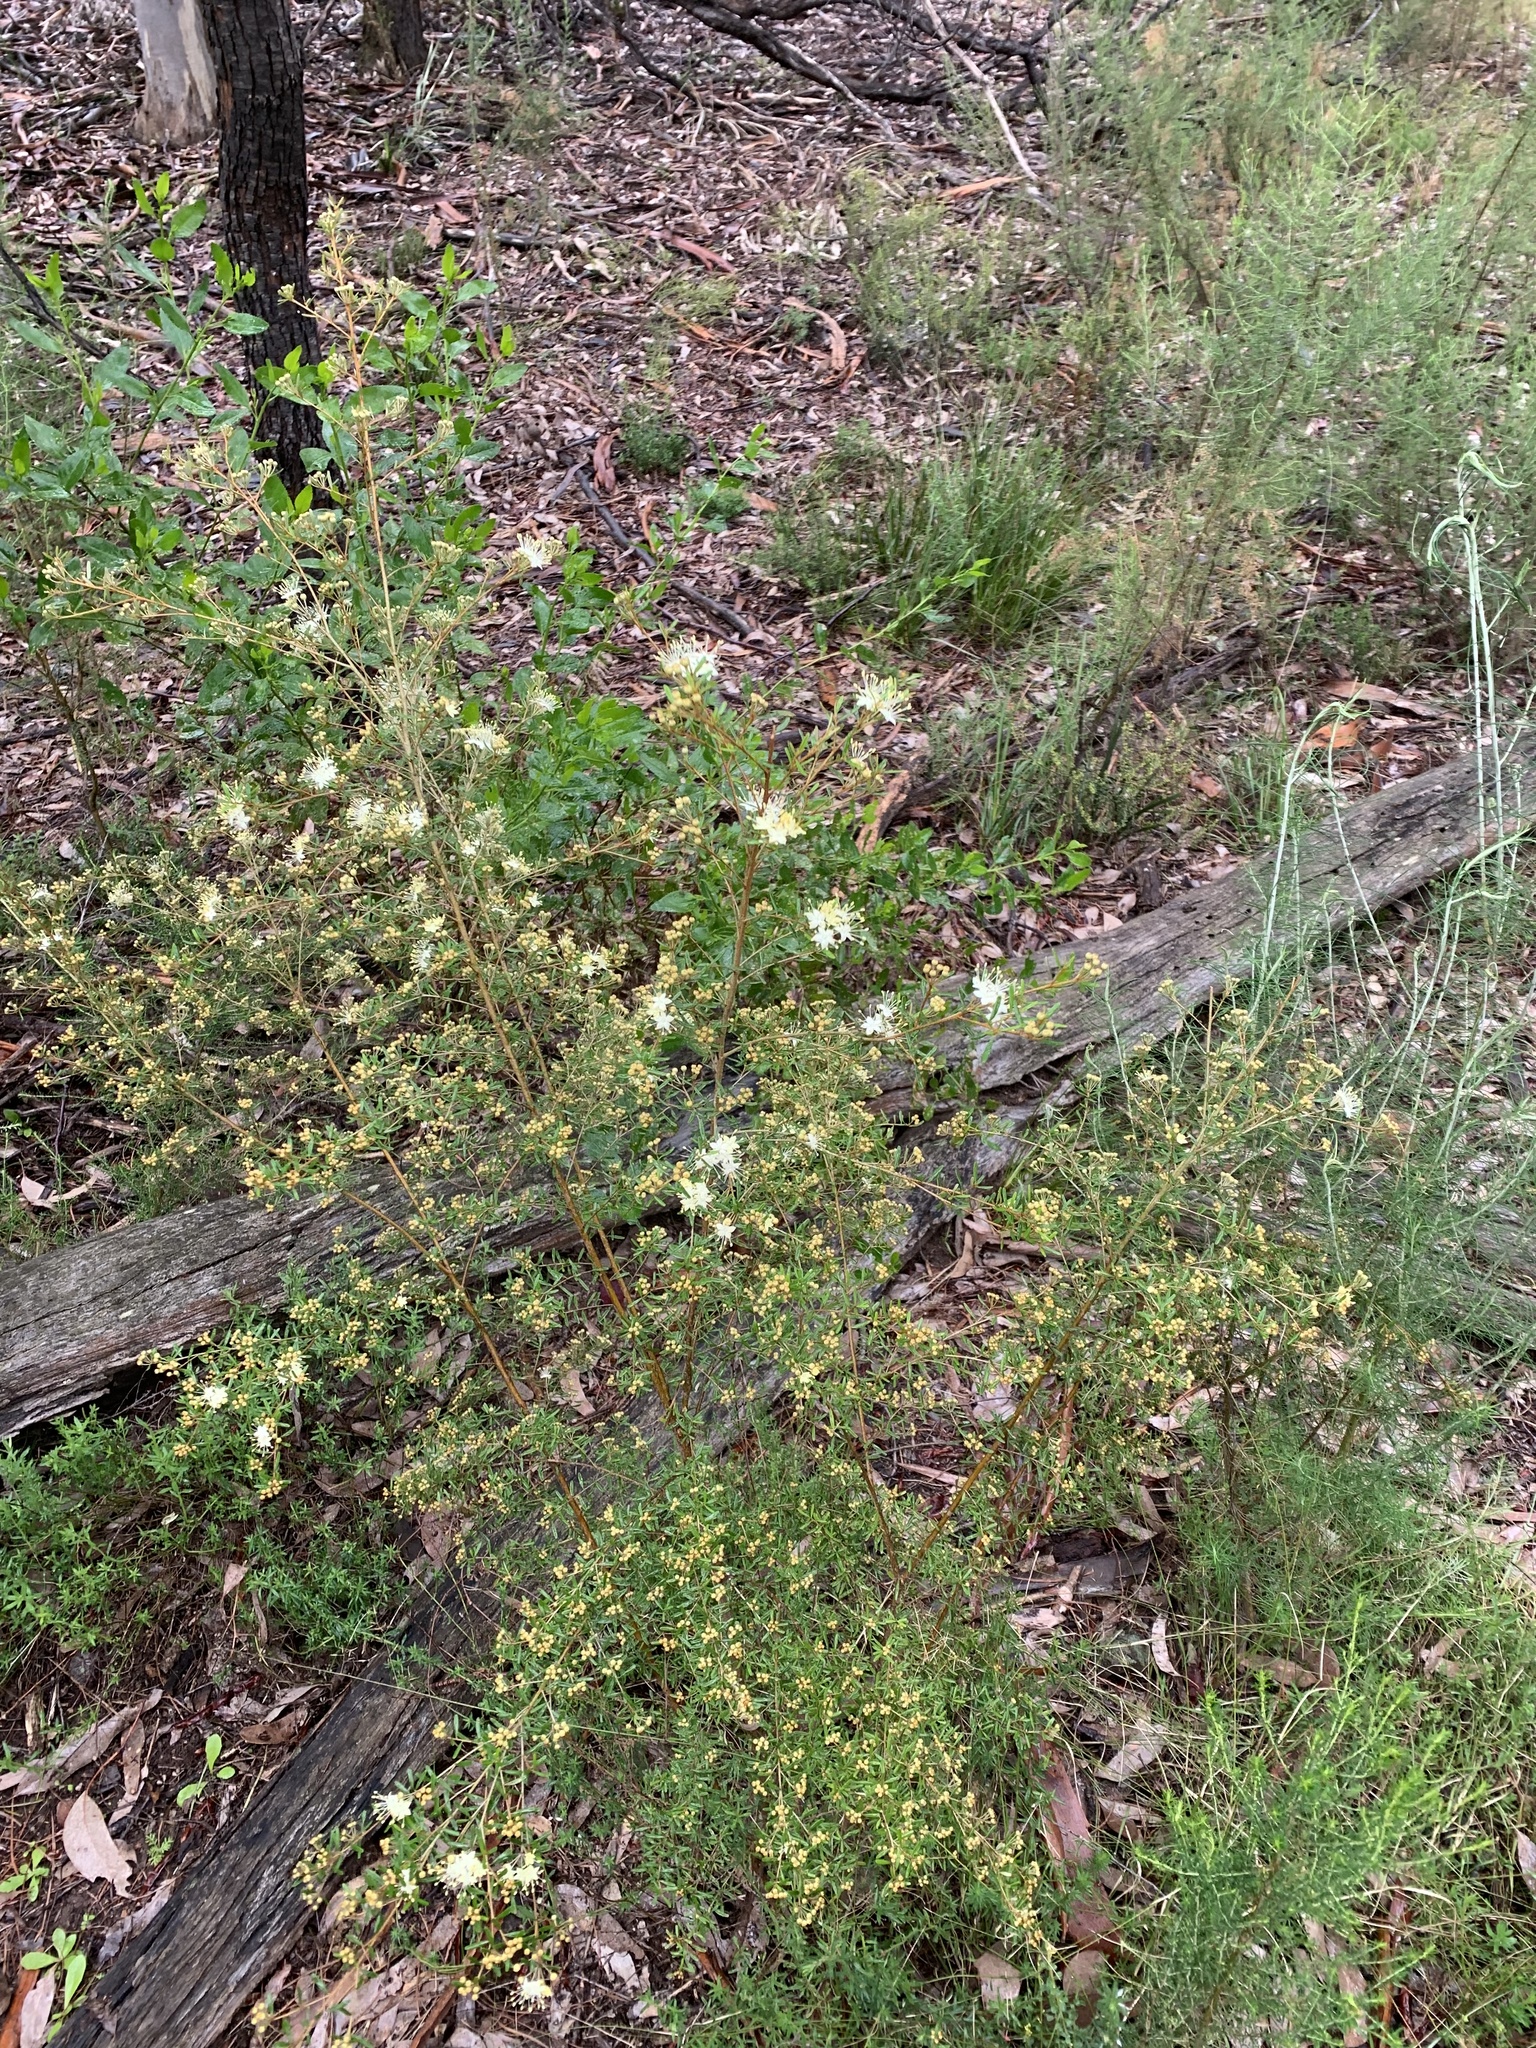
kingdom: Plantae
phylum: Tracheophyta
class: Magnoliopsida
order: Sapindales
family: Rutaceae
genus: Phebalium
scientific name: Phebalium squamulosum
